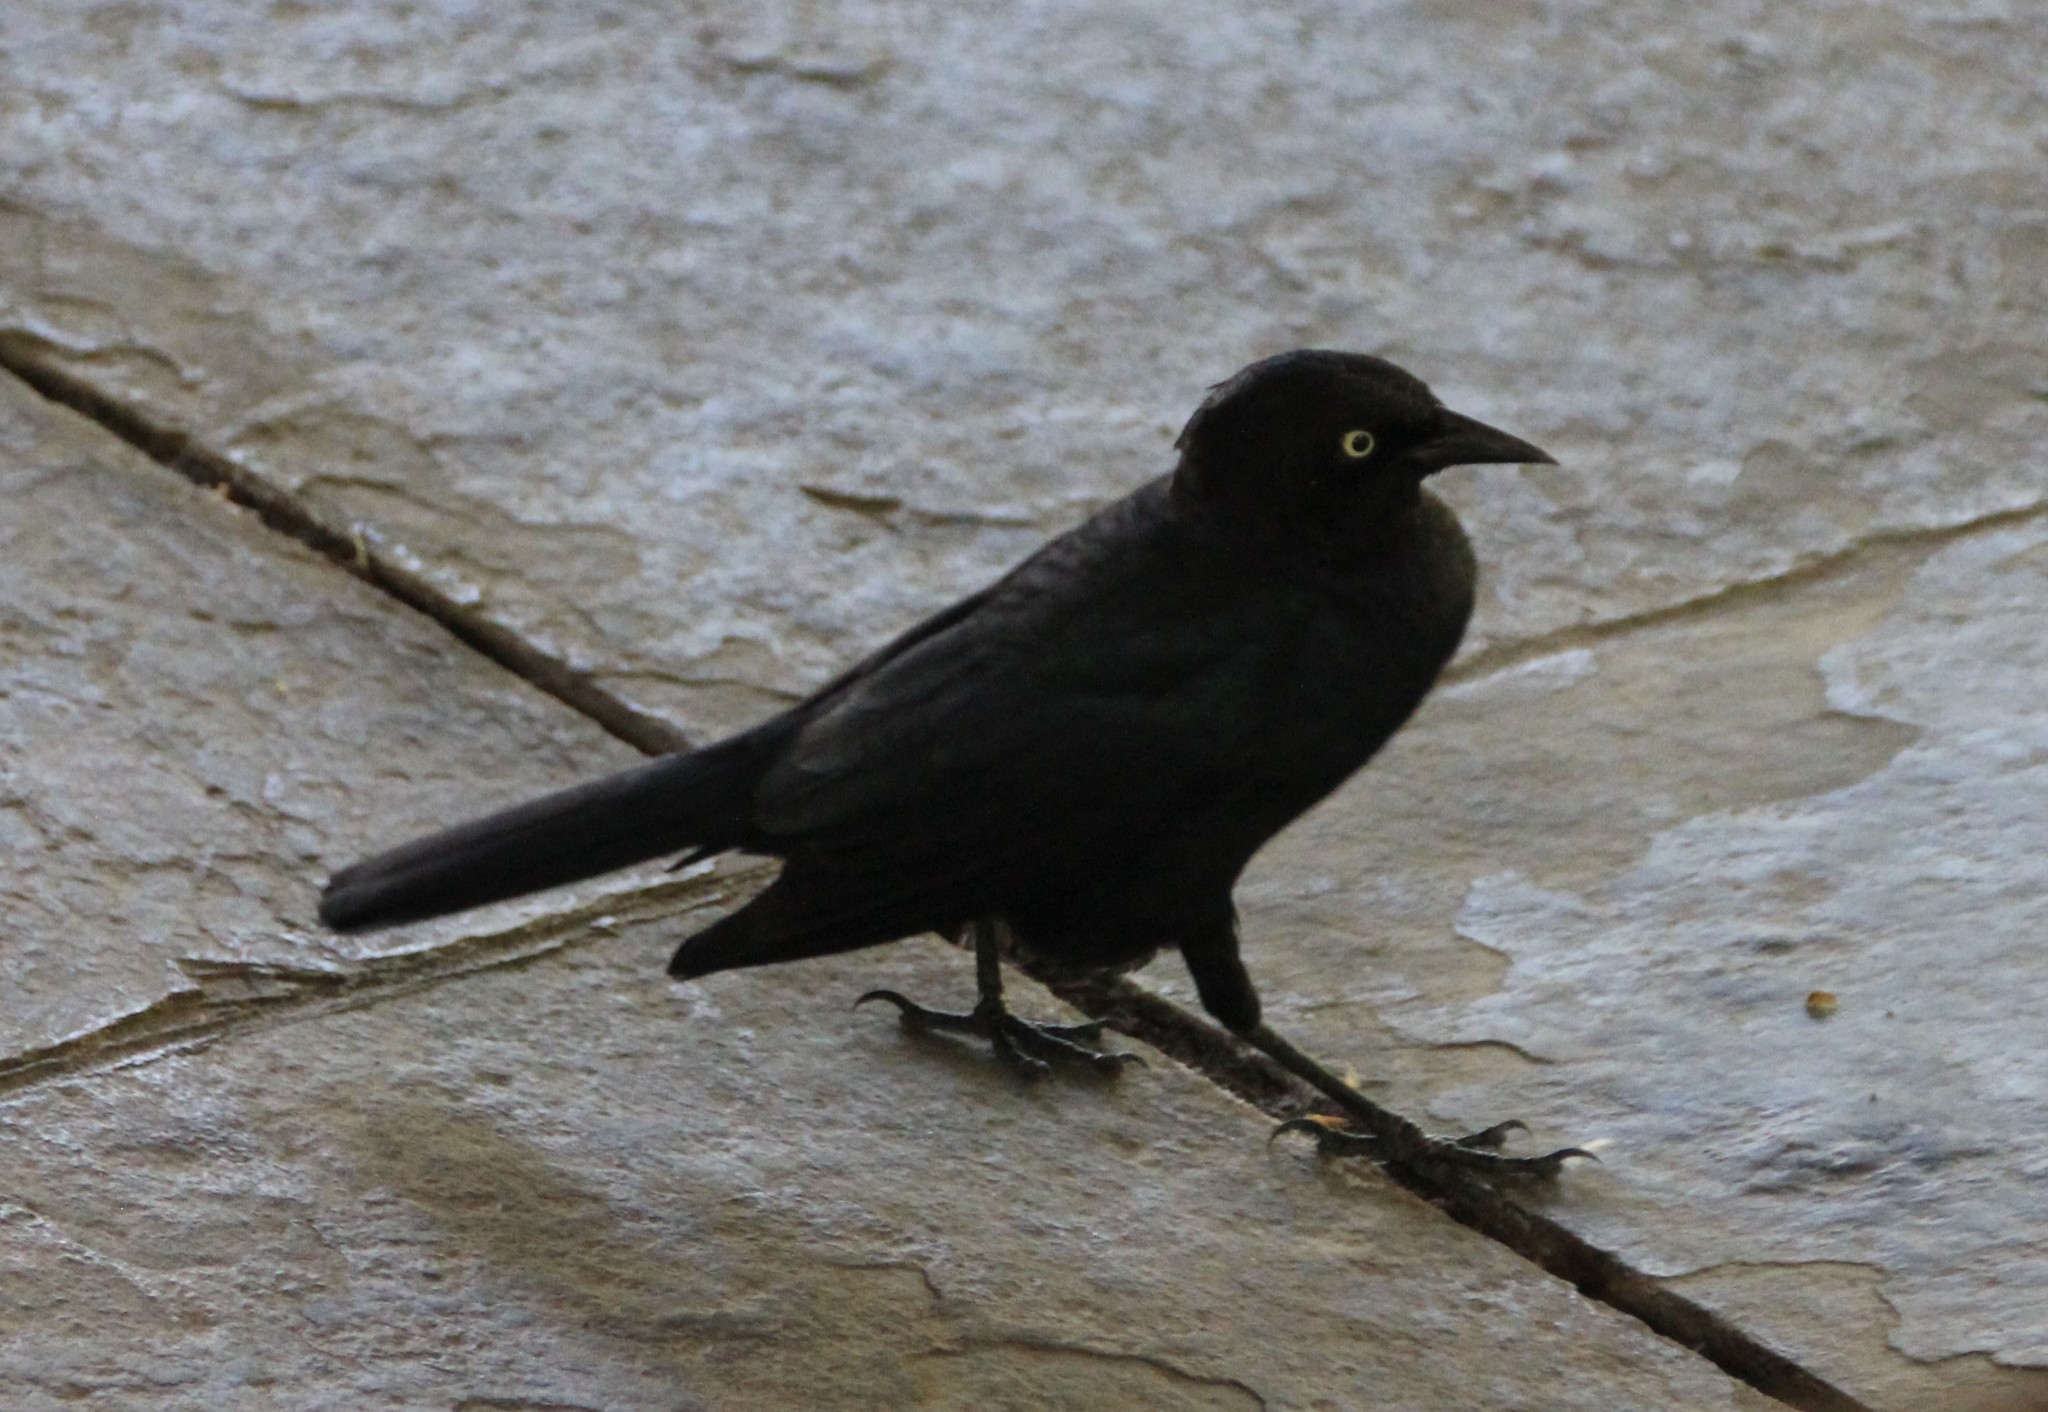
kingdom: Animalia
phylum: Chordata
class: Aves
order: Passeriformes
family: Icteridae
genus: Euphagus
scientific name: Euphagus cyanocephalus
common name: Brewer's blackbird
